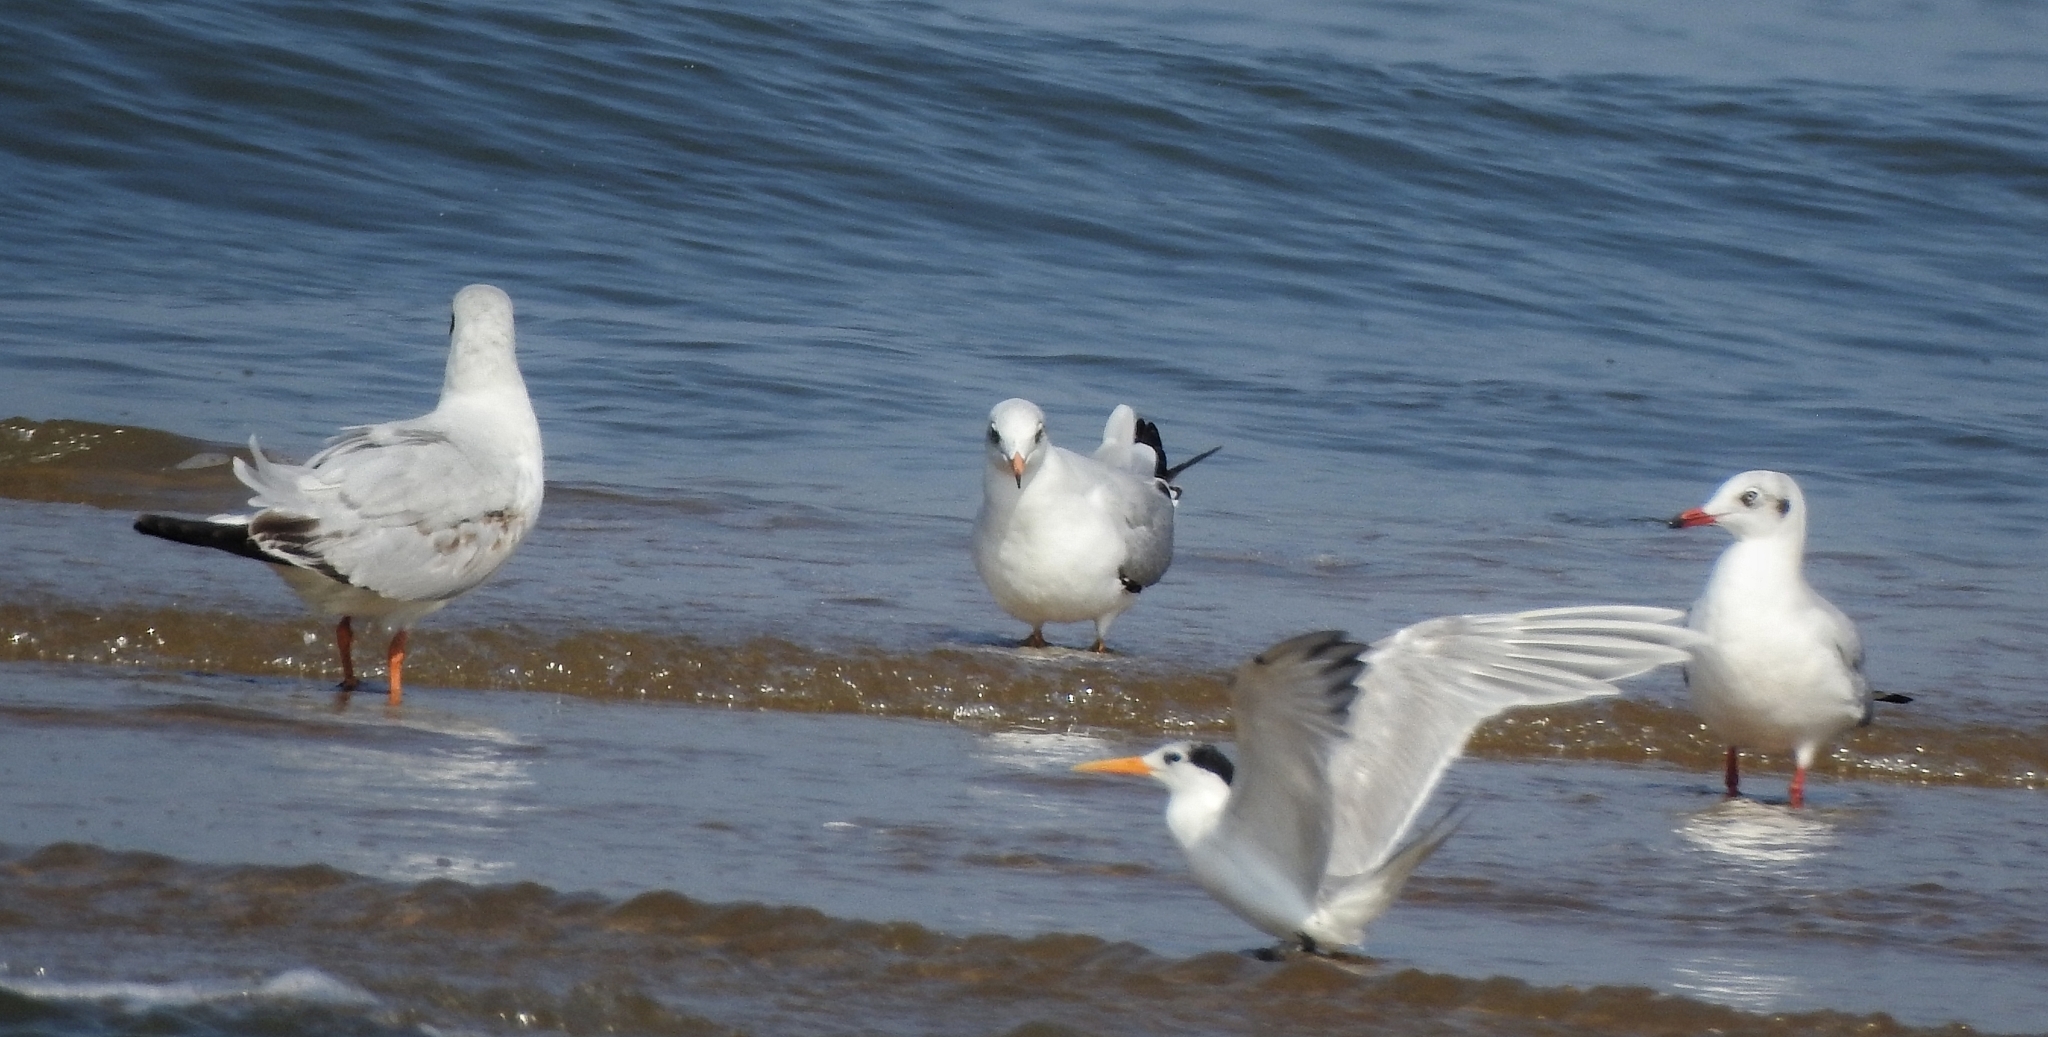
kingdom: Animalia
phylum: Chordata
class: Aves
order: Charadriiformes
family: Laridae
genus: Chroicocephalus
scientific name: Chroicocephalus brunnicephalus
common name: Brown-headed gull
